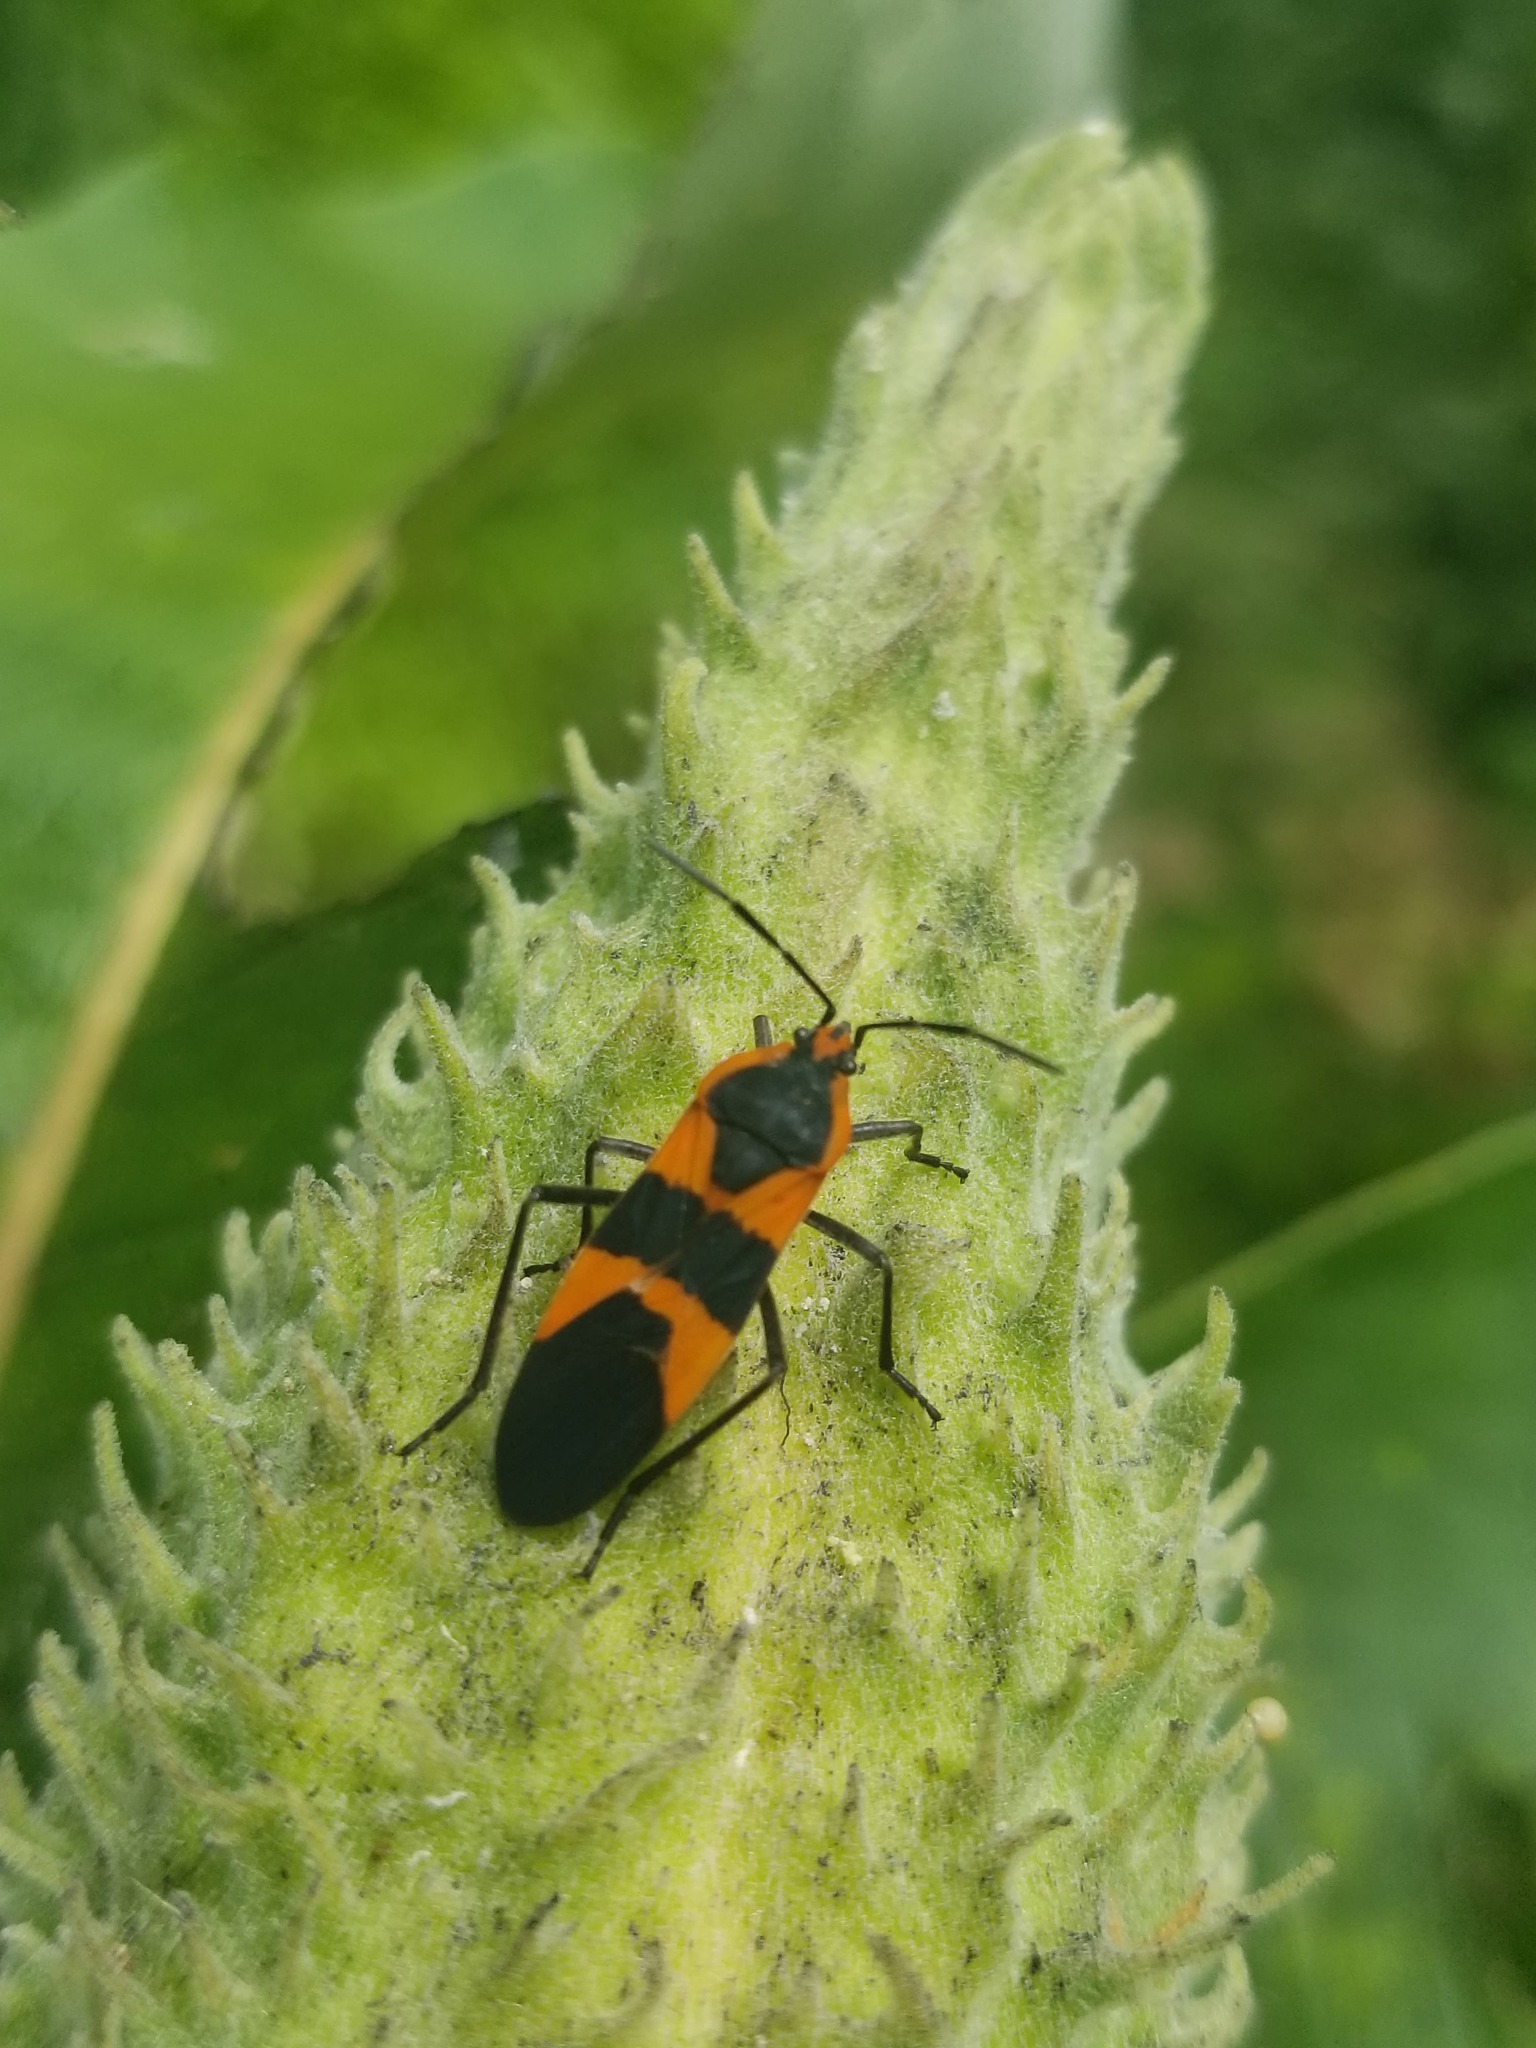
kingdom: Animalia
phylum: Arthropoda
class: Insecta
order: Hemiptera
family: Lygaeidae
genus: Oncopeltus
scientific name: Oncopeltus fasciatus
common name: Large milkweed bug
